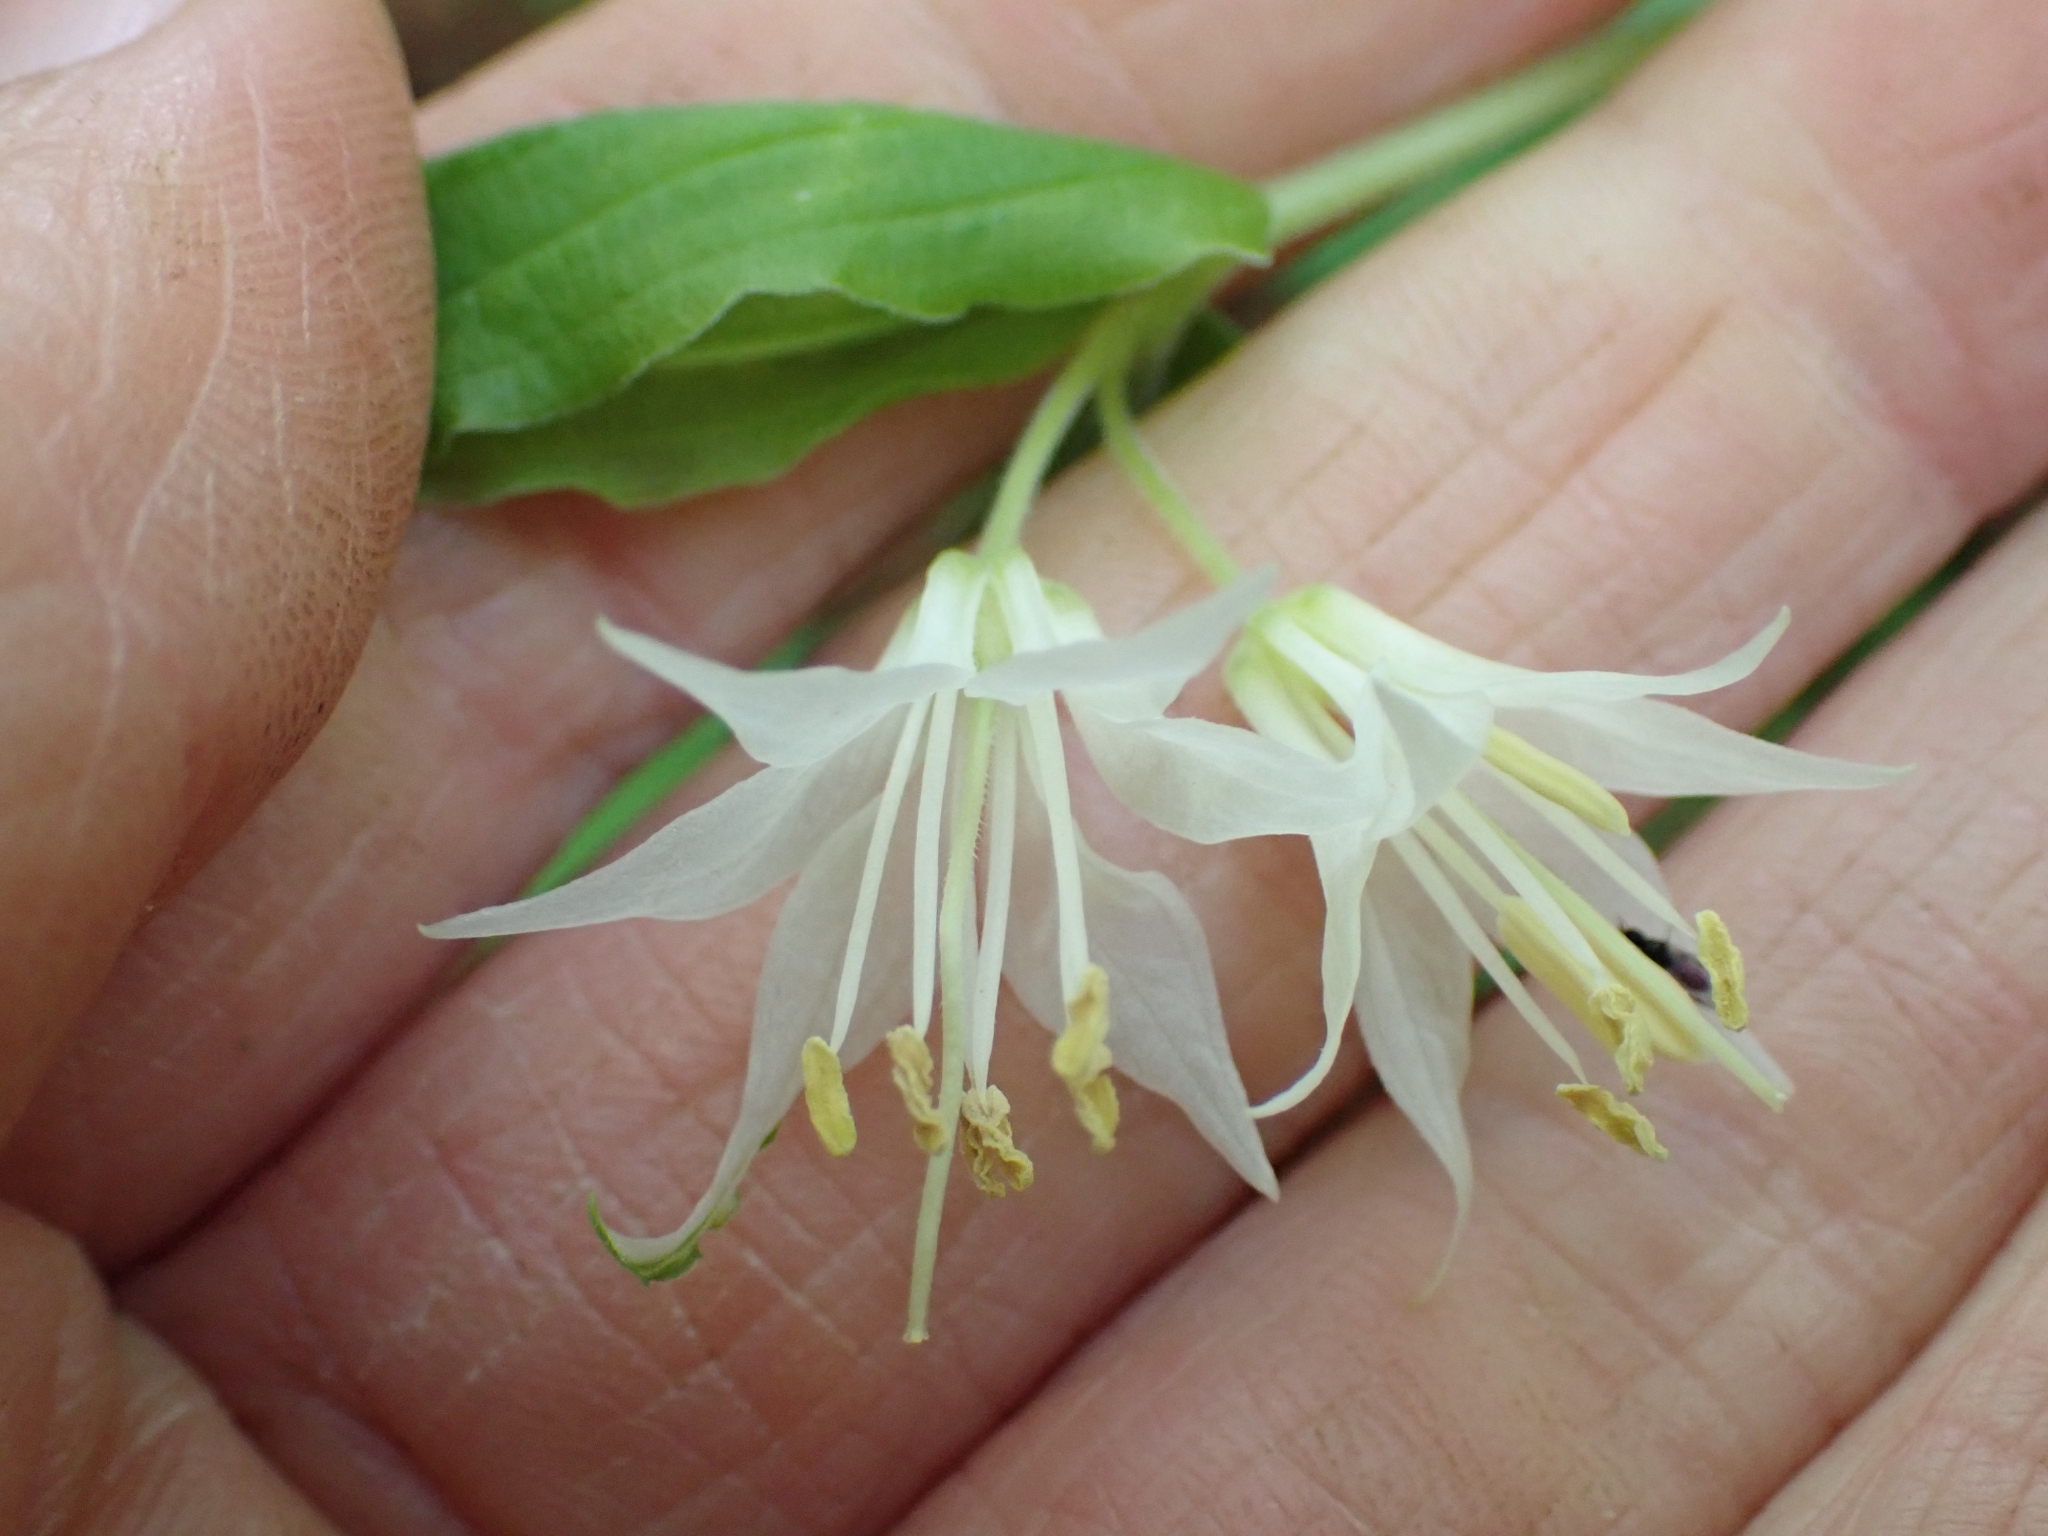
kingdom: Plantae
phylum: Tracheophyta
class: Liliopsida
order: Liliales
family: Liliaceae
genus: Prosartes
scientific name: Prosartes hookeri
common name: Fairy-bells
